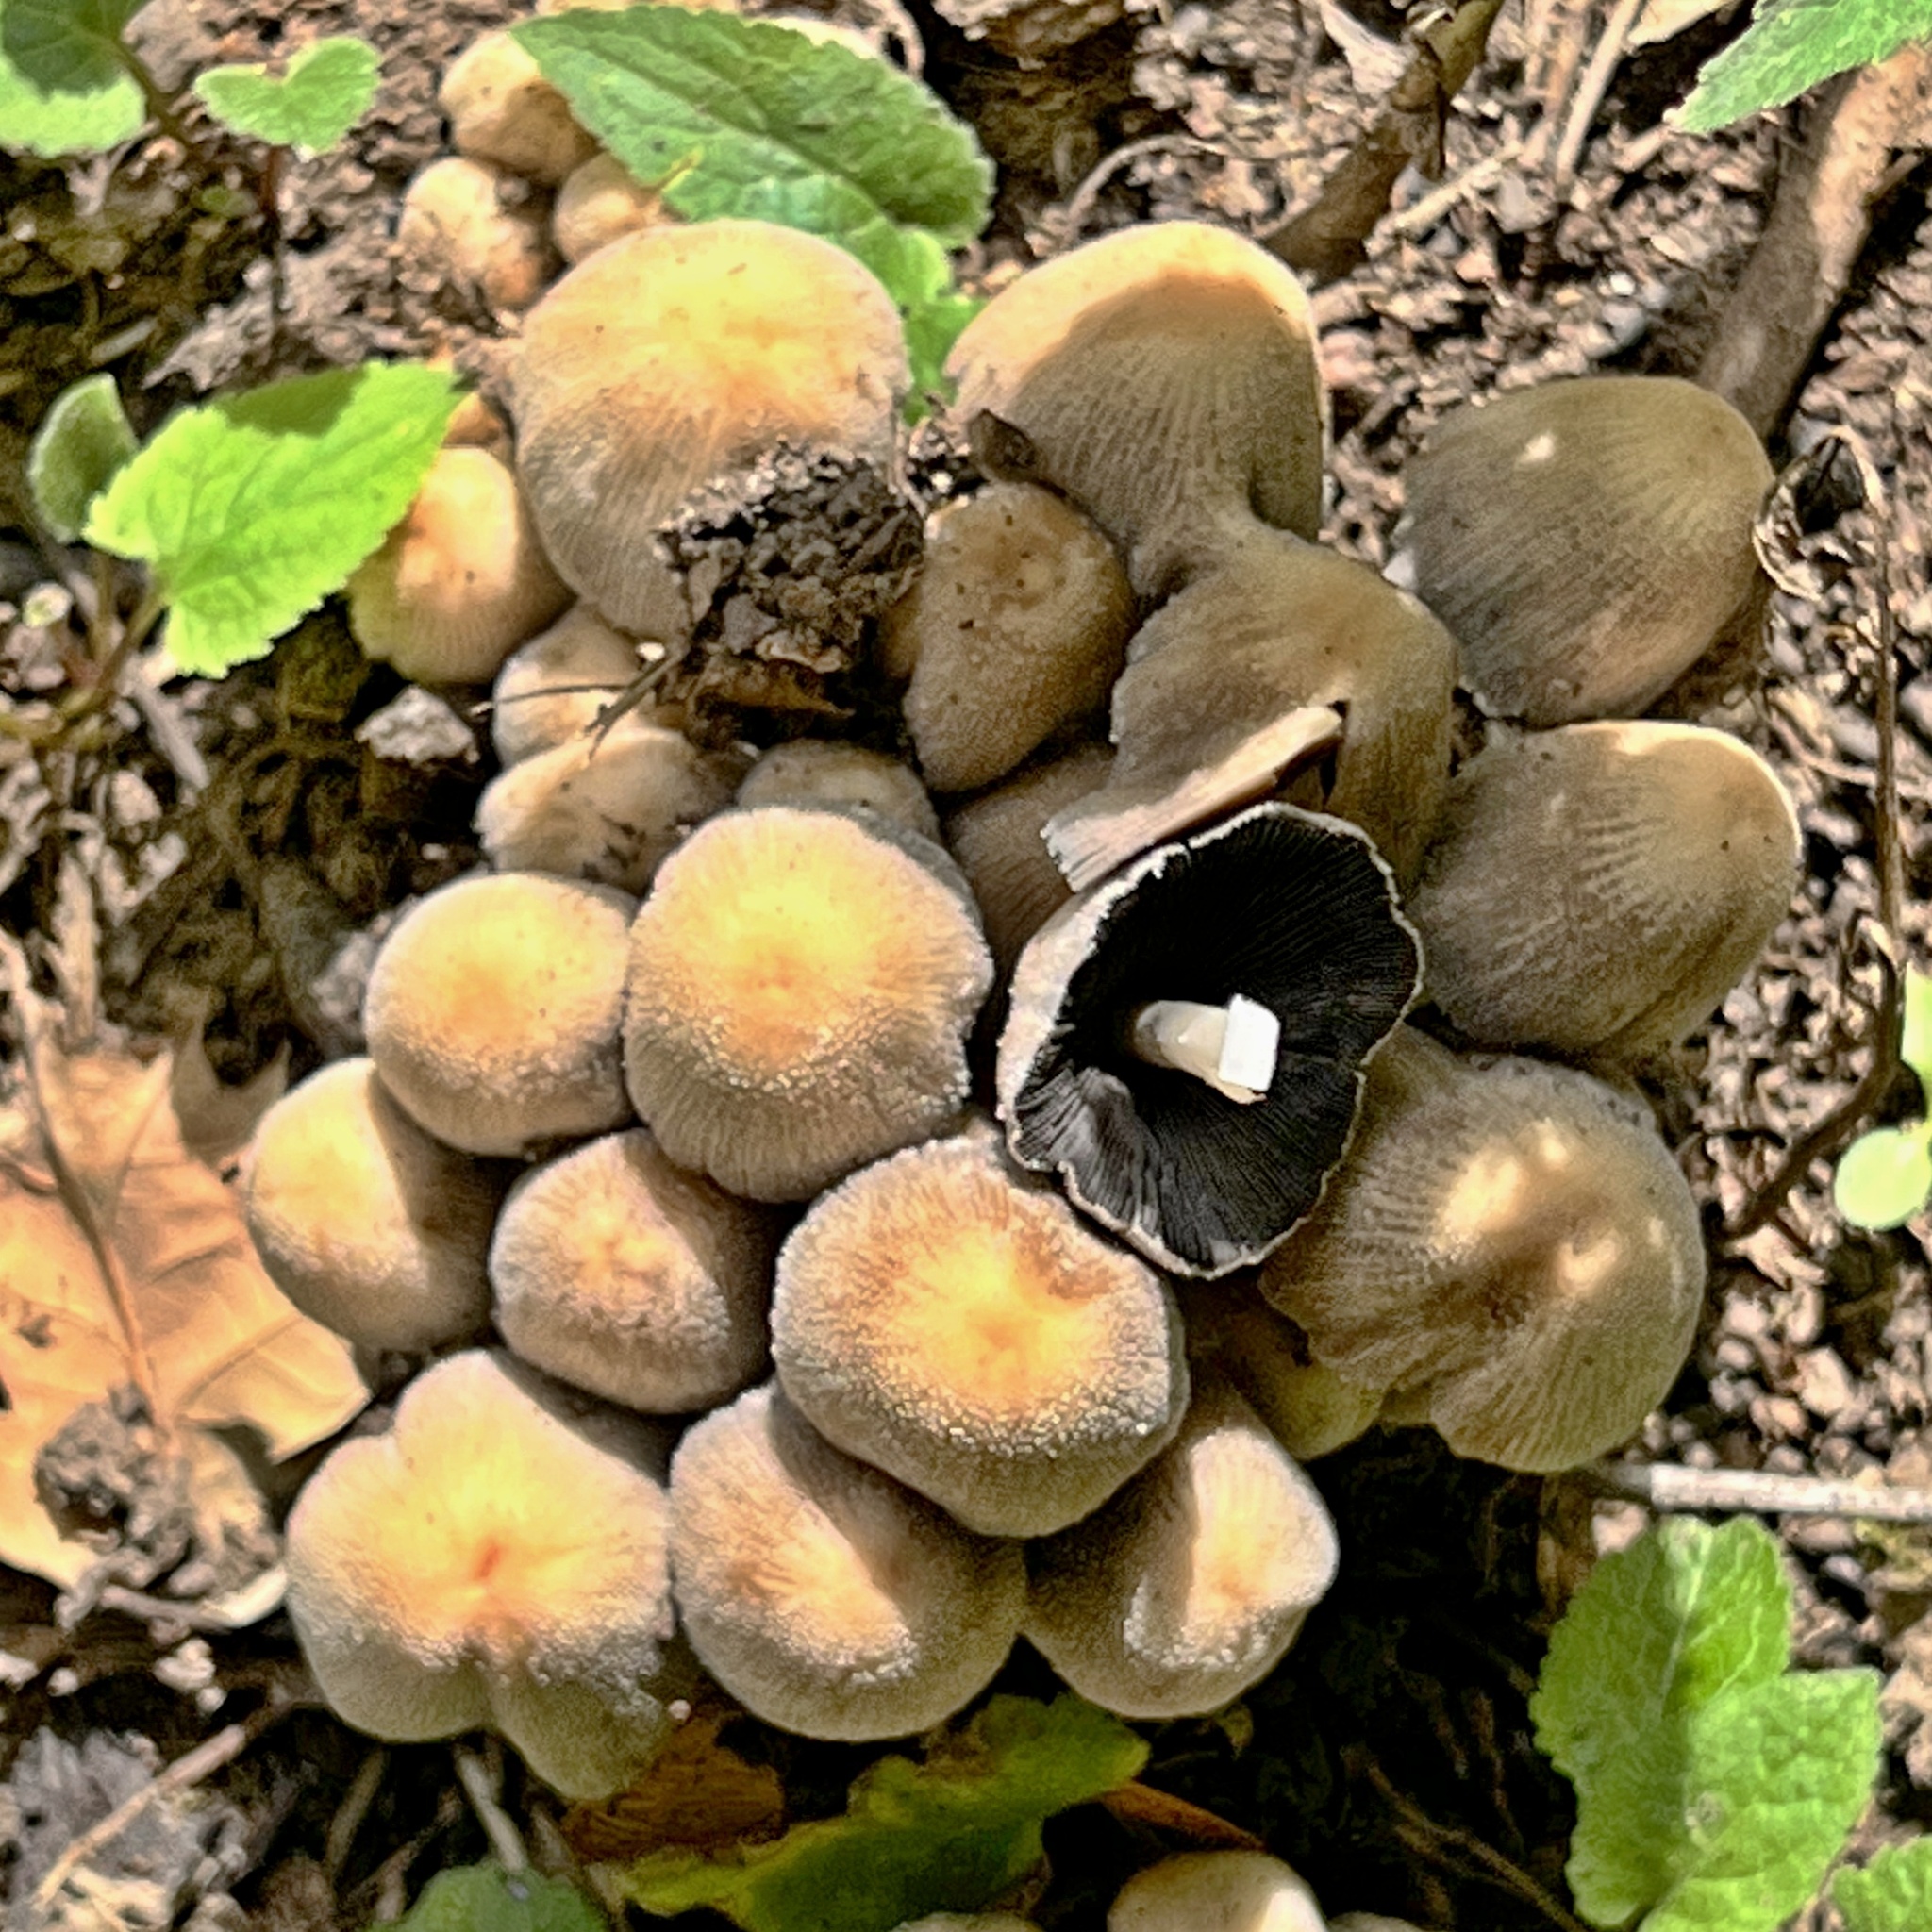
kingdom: Fungi
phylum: Basidiomycota
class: Agaricomycetes
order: Agaricales
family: Psathyrellaceae
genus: Coprinellus
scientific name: Coprinellus micaceus
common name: Glistening ink-cap
